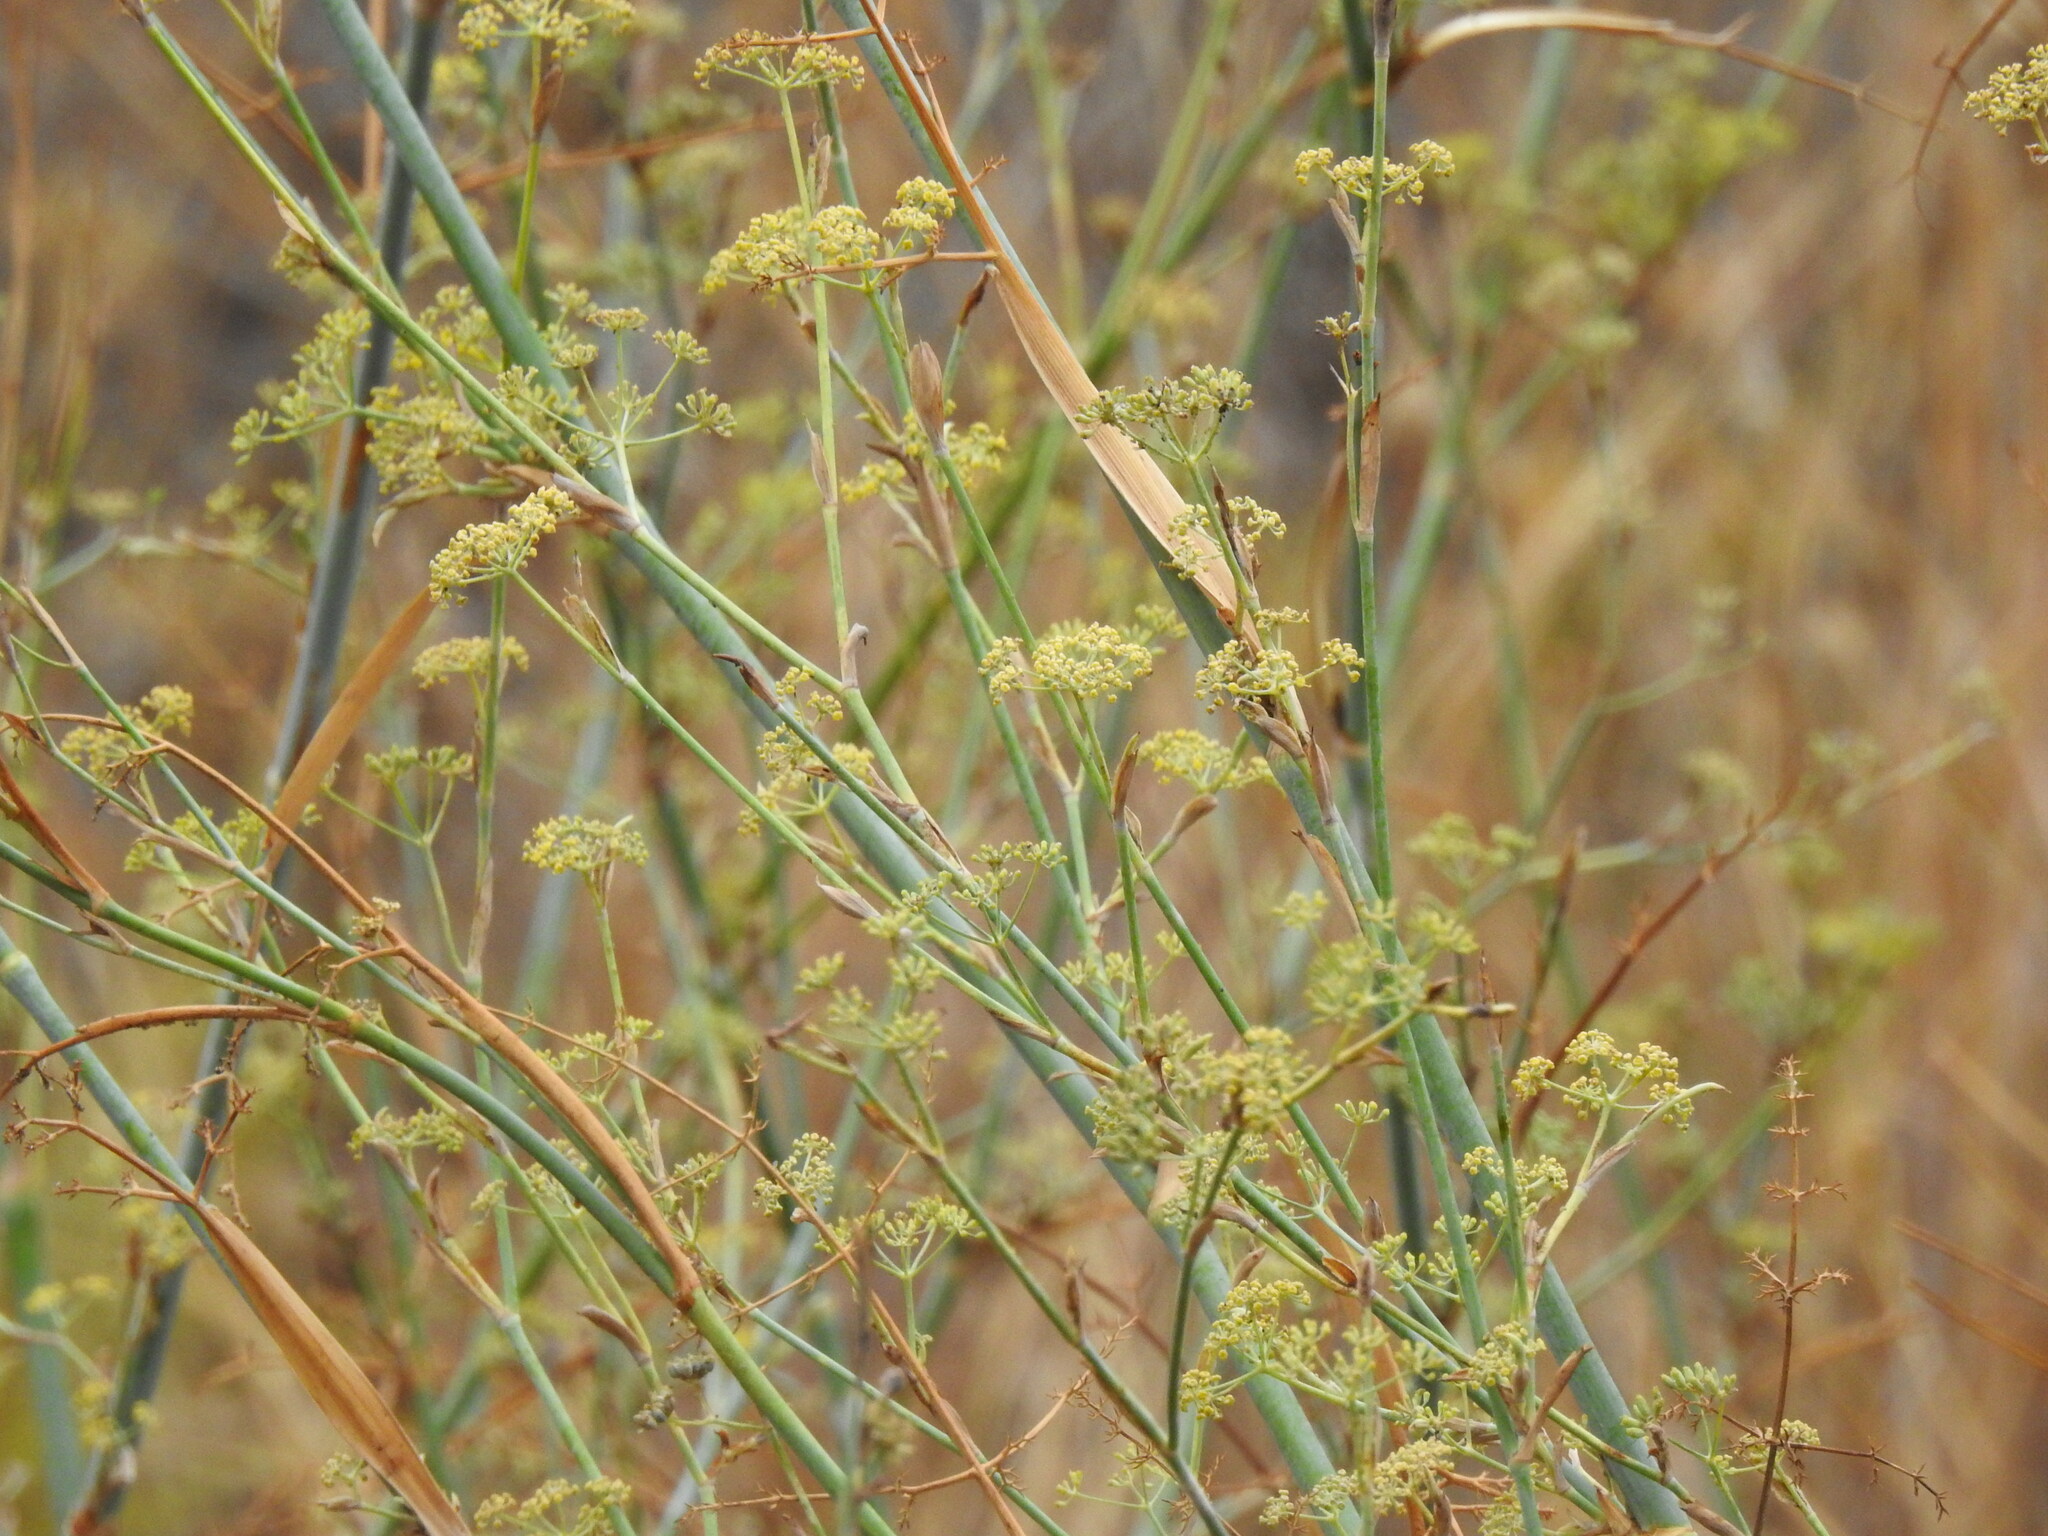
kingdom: Plantae
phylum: Tracheophyta
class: Magnoliopsida
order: Apiales
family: Apiaceae
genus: Foeniculum
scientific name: Foeniculum vulgare
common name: Fennel
